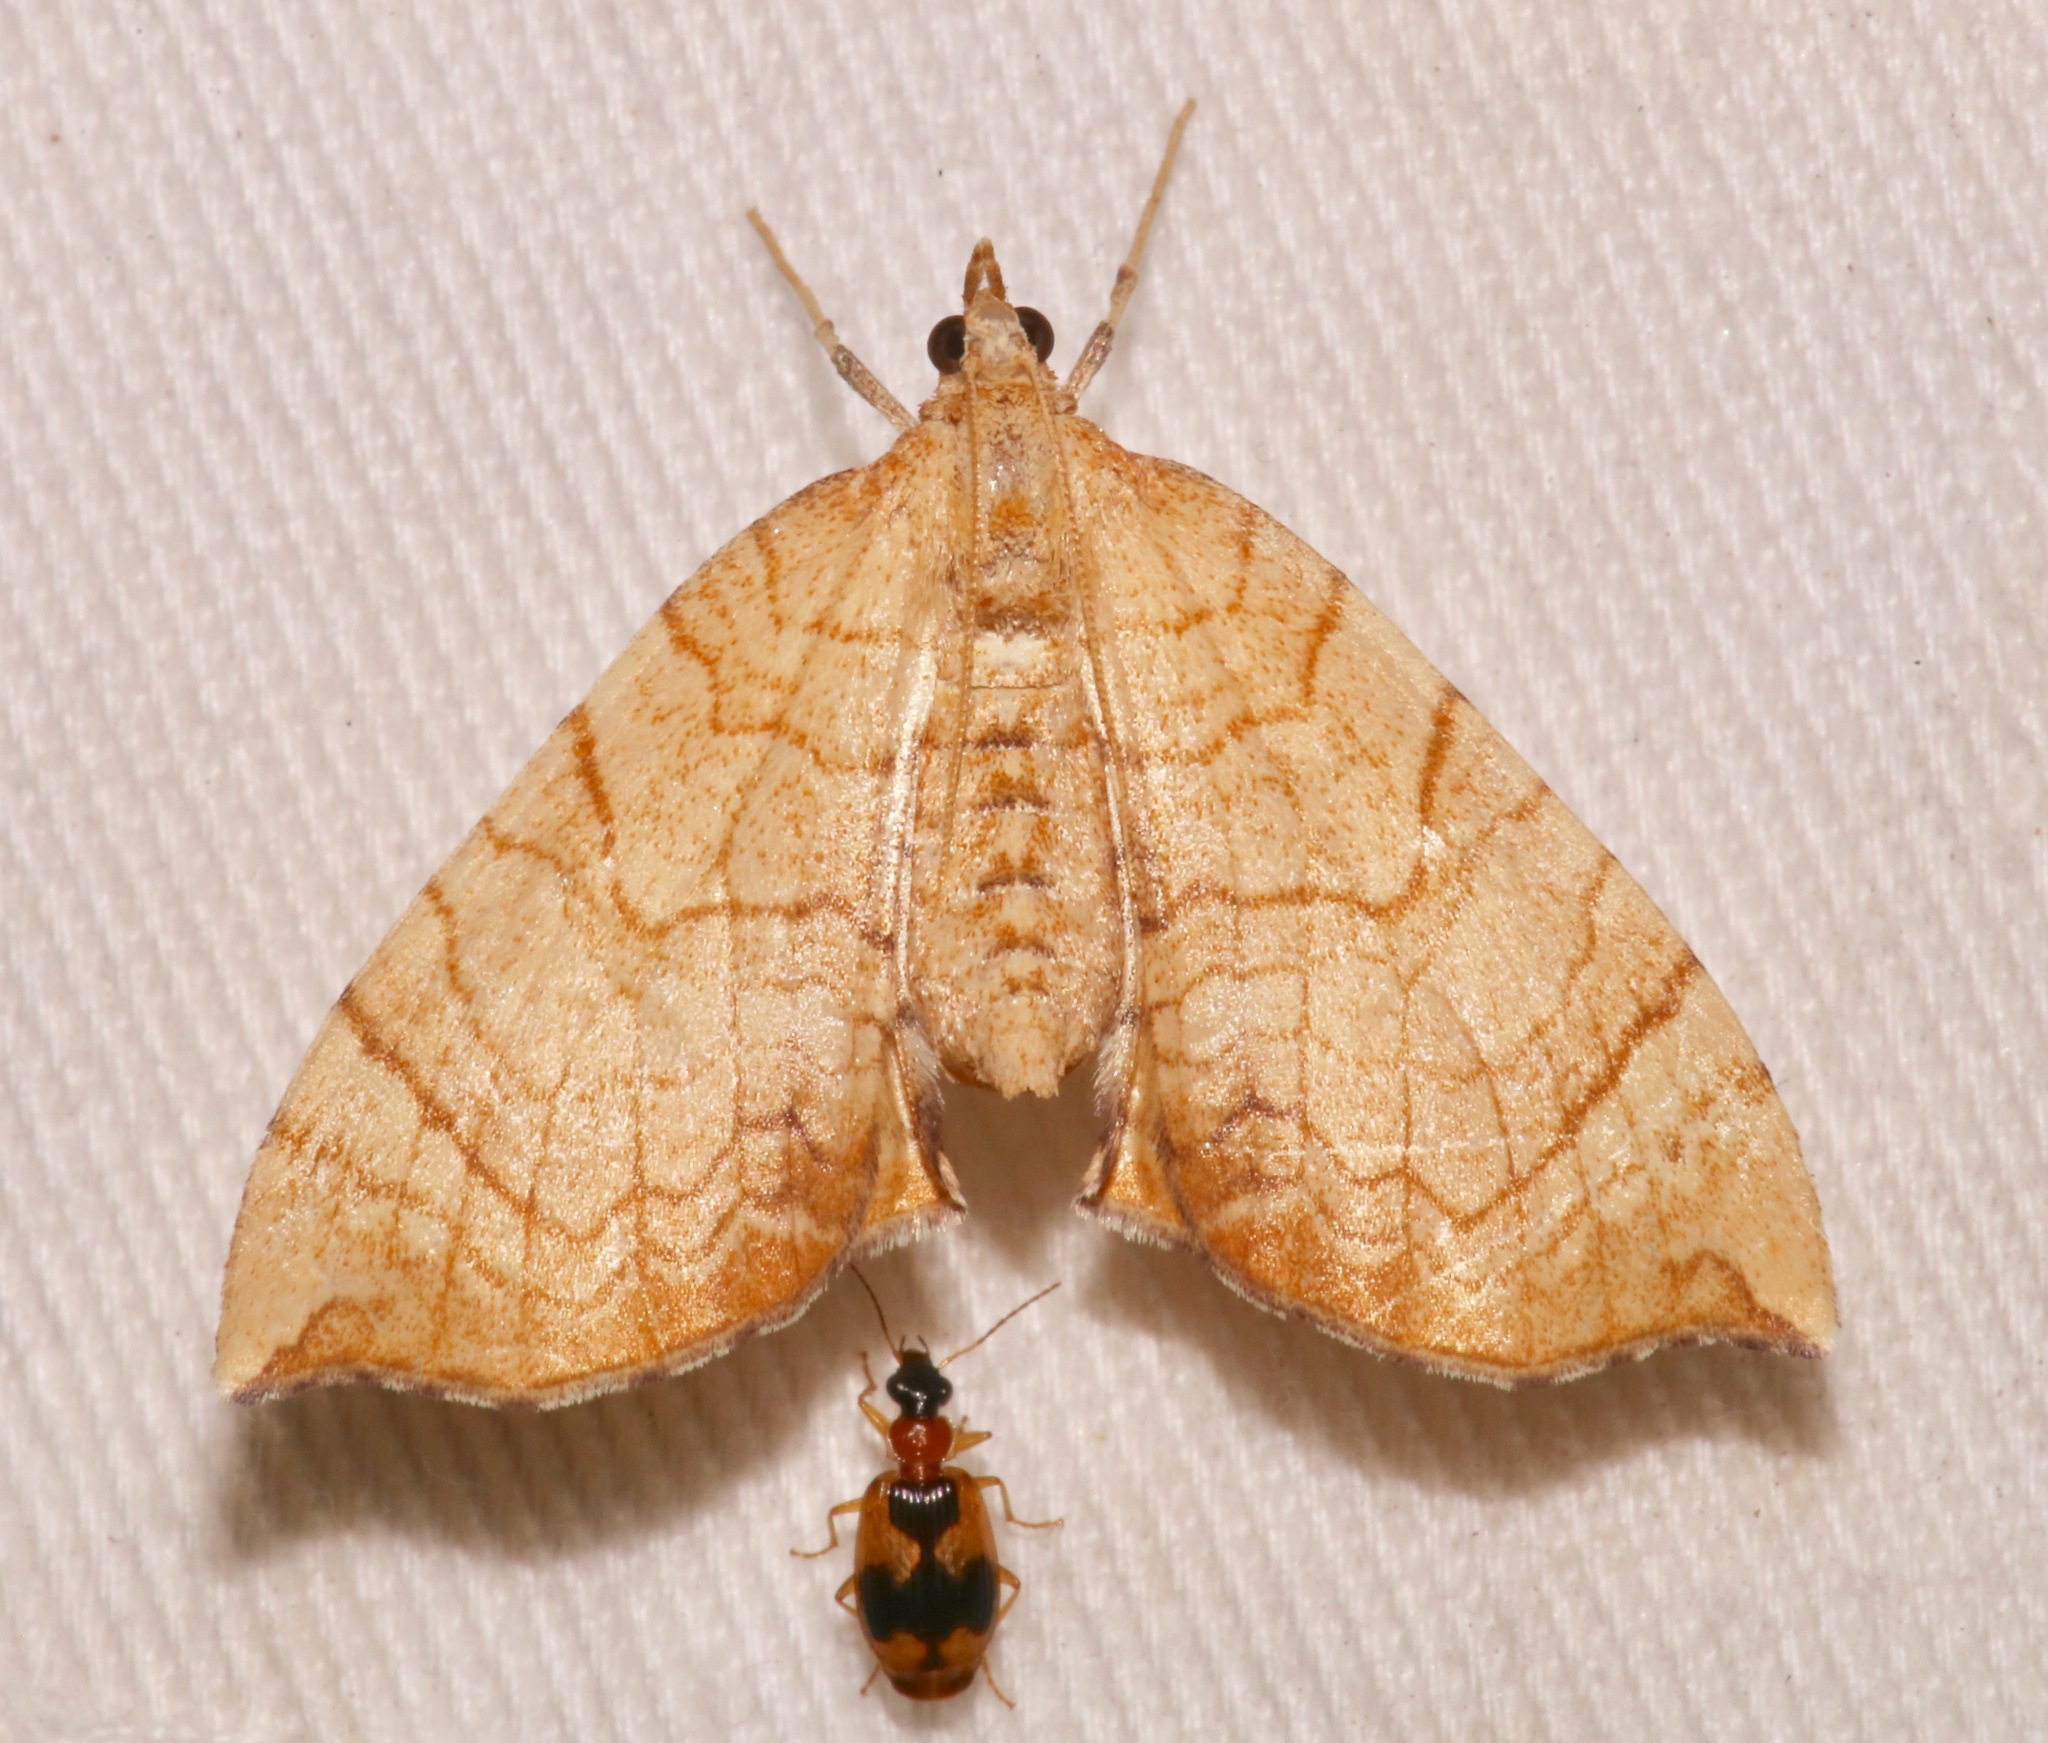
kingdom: Animalia
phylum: Arthropoda
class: Insecta
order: Lepidoptera
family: Geometridae
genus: Eulithis
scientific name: Eulithis luteolata
